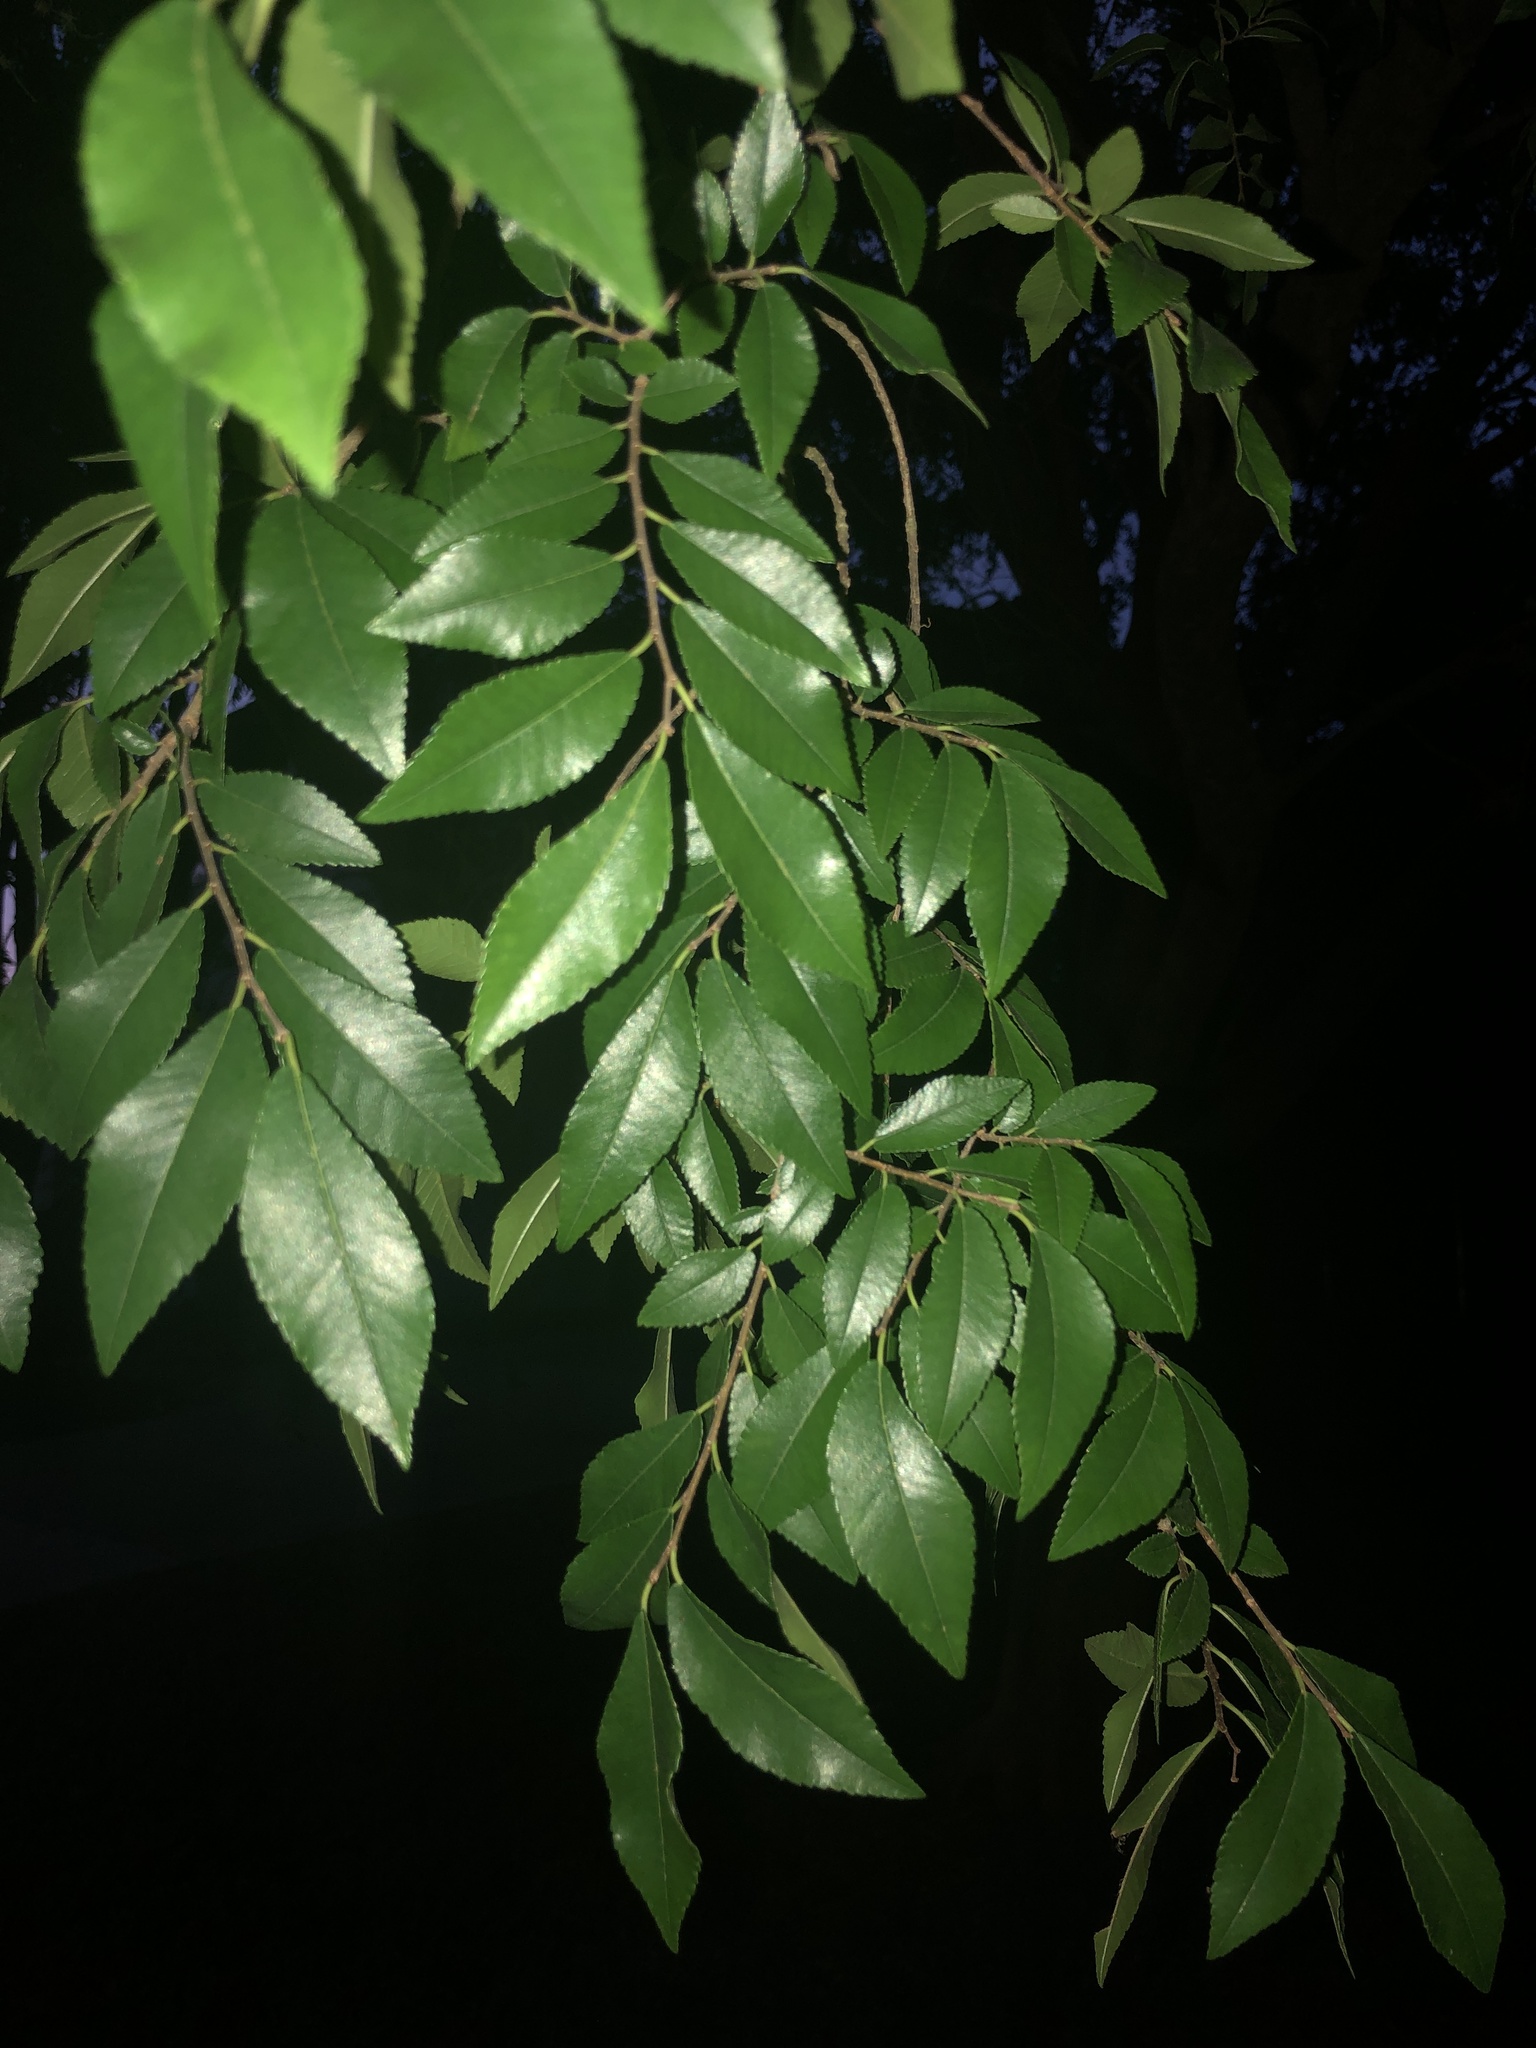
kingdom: Plantae
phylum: Tracheophyta
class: Magnoliopsida
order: Rosales
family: Ulmaceae
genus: Ulmus
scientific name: Ulmus parvifolia
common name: Chinese elm
